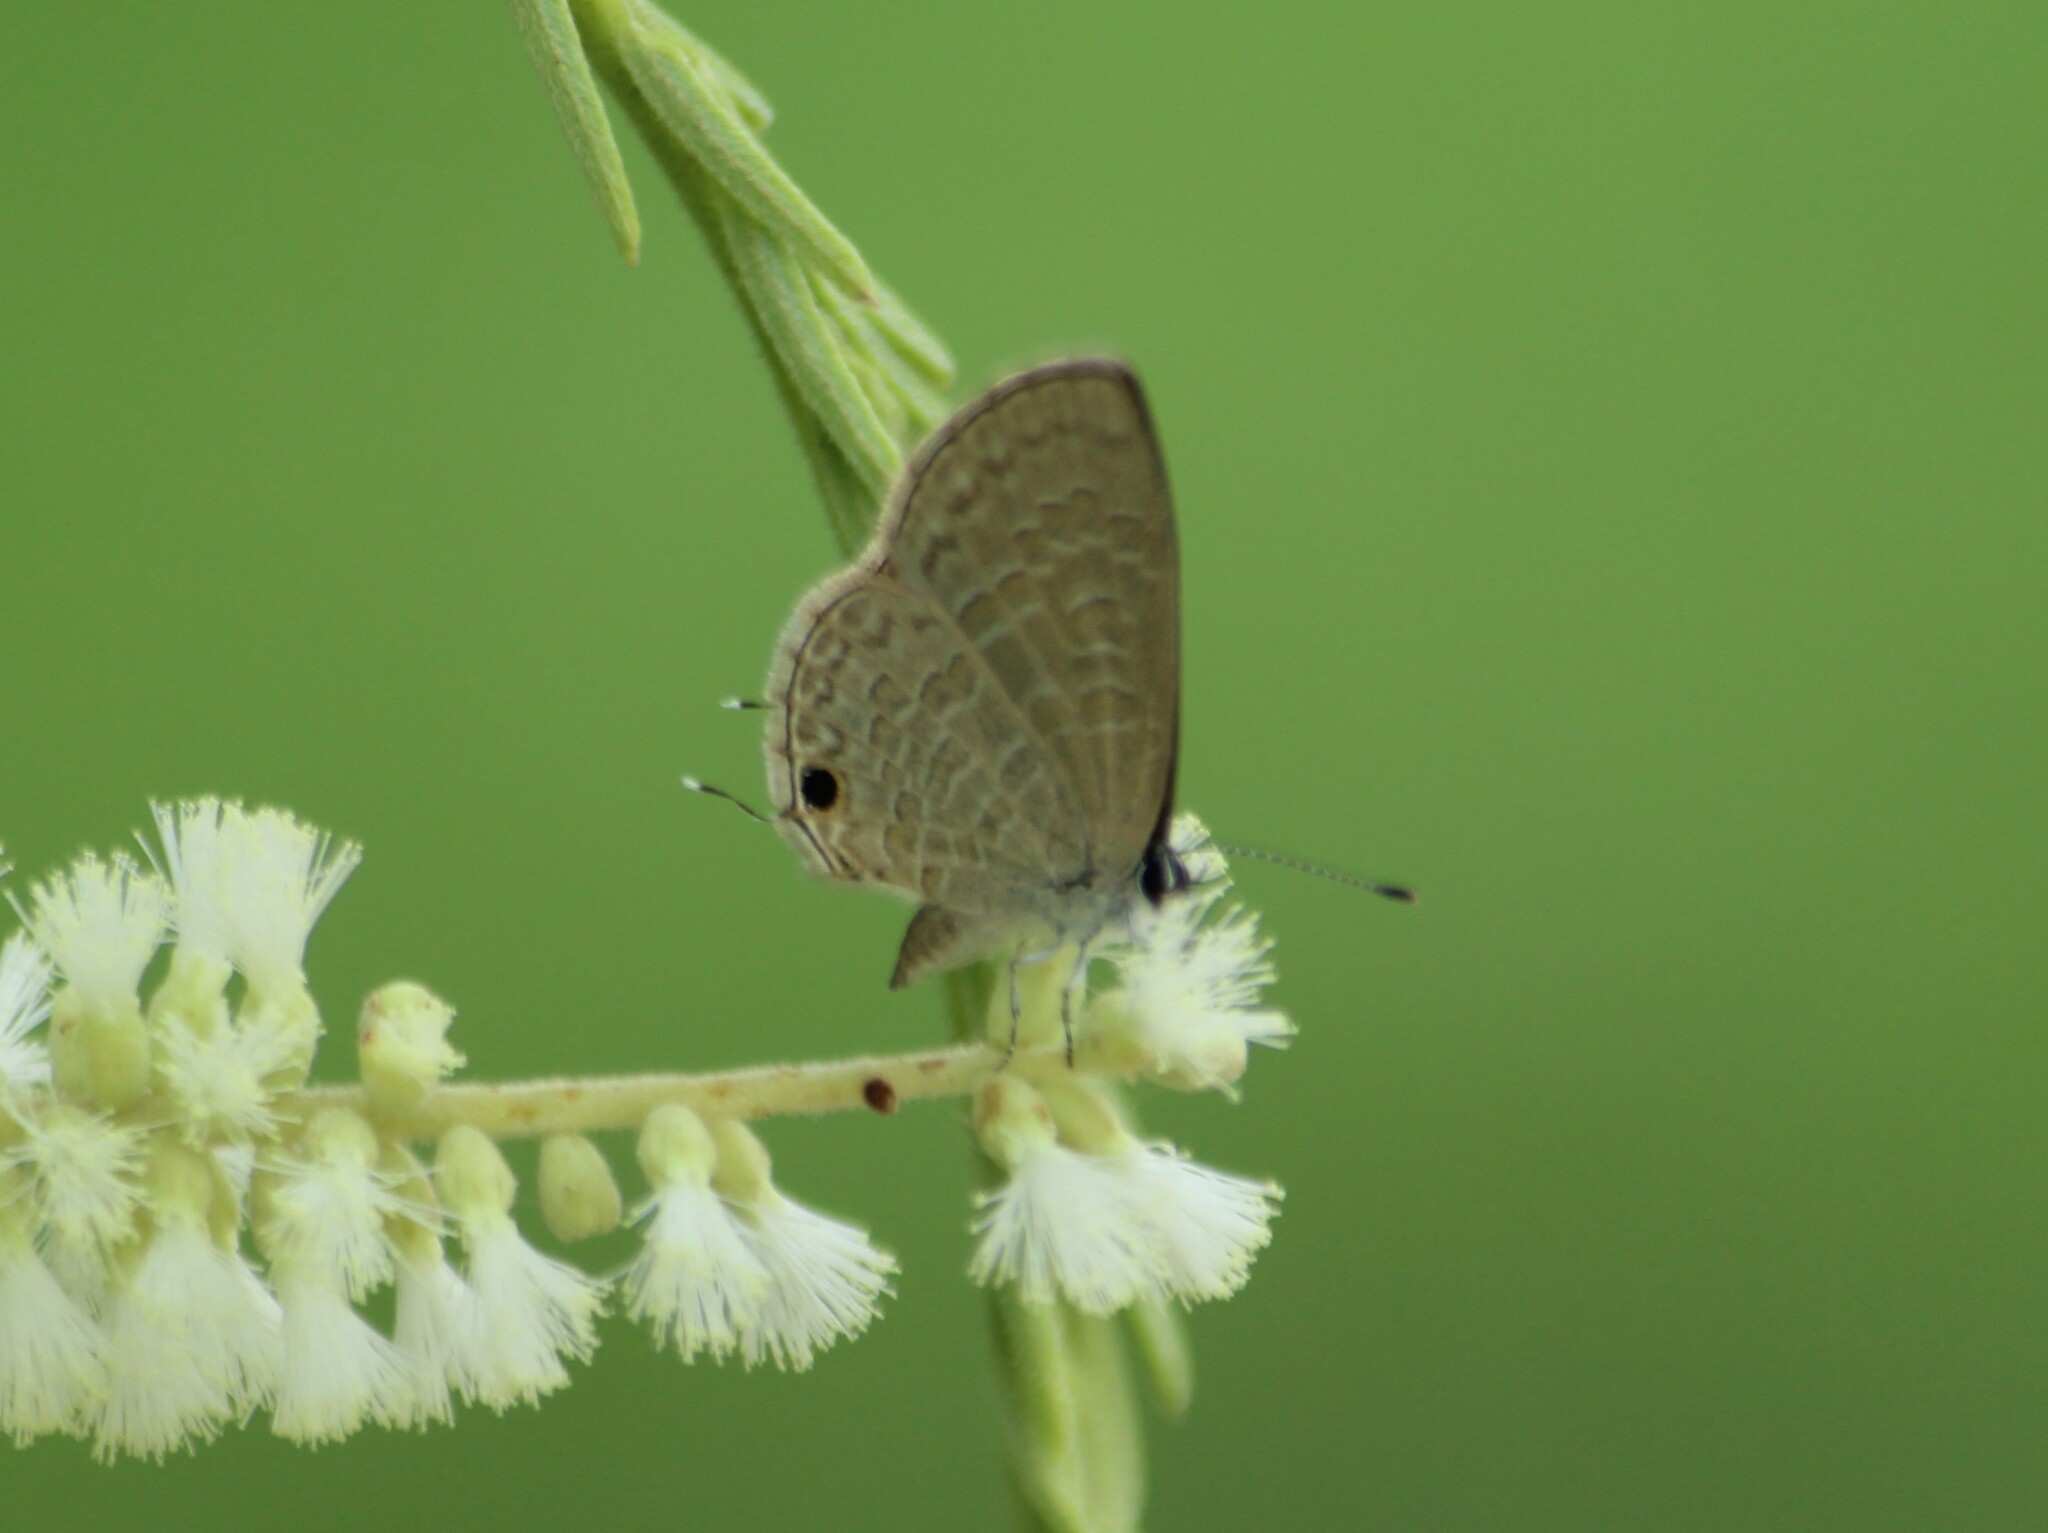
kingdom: Animalia
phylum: Arthropoda
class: Insecta
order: Lepidoptera
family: Lycaenidae
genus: Prosotas
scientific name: Prosotas nora
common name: Common line blue
